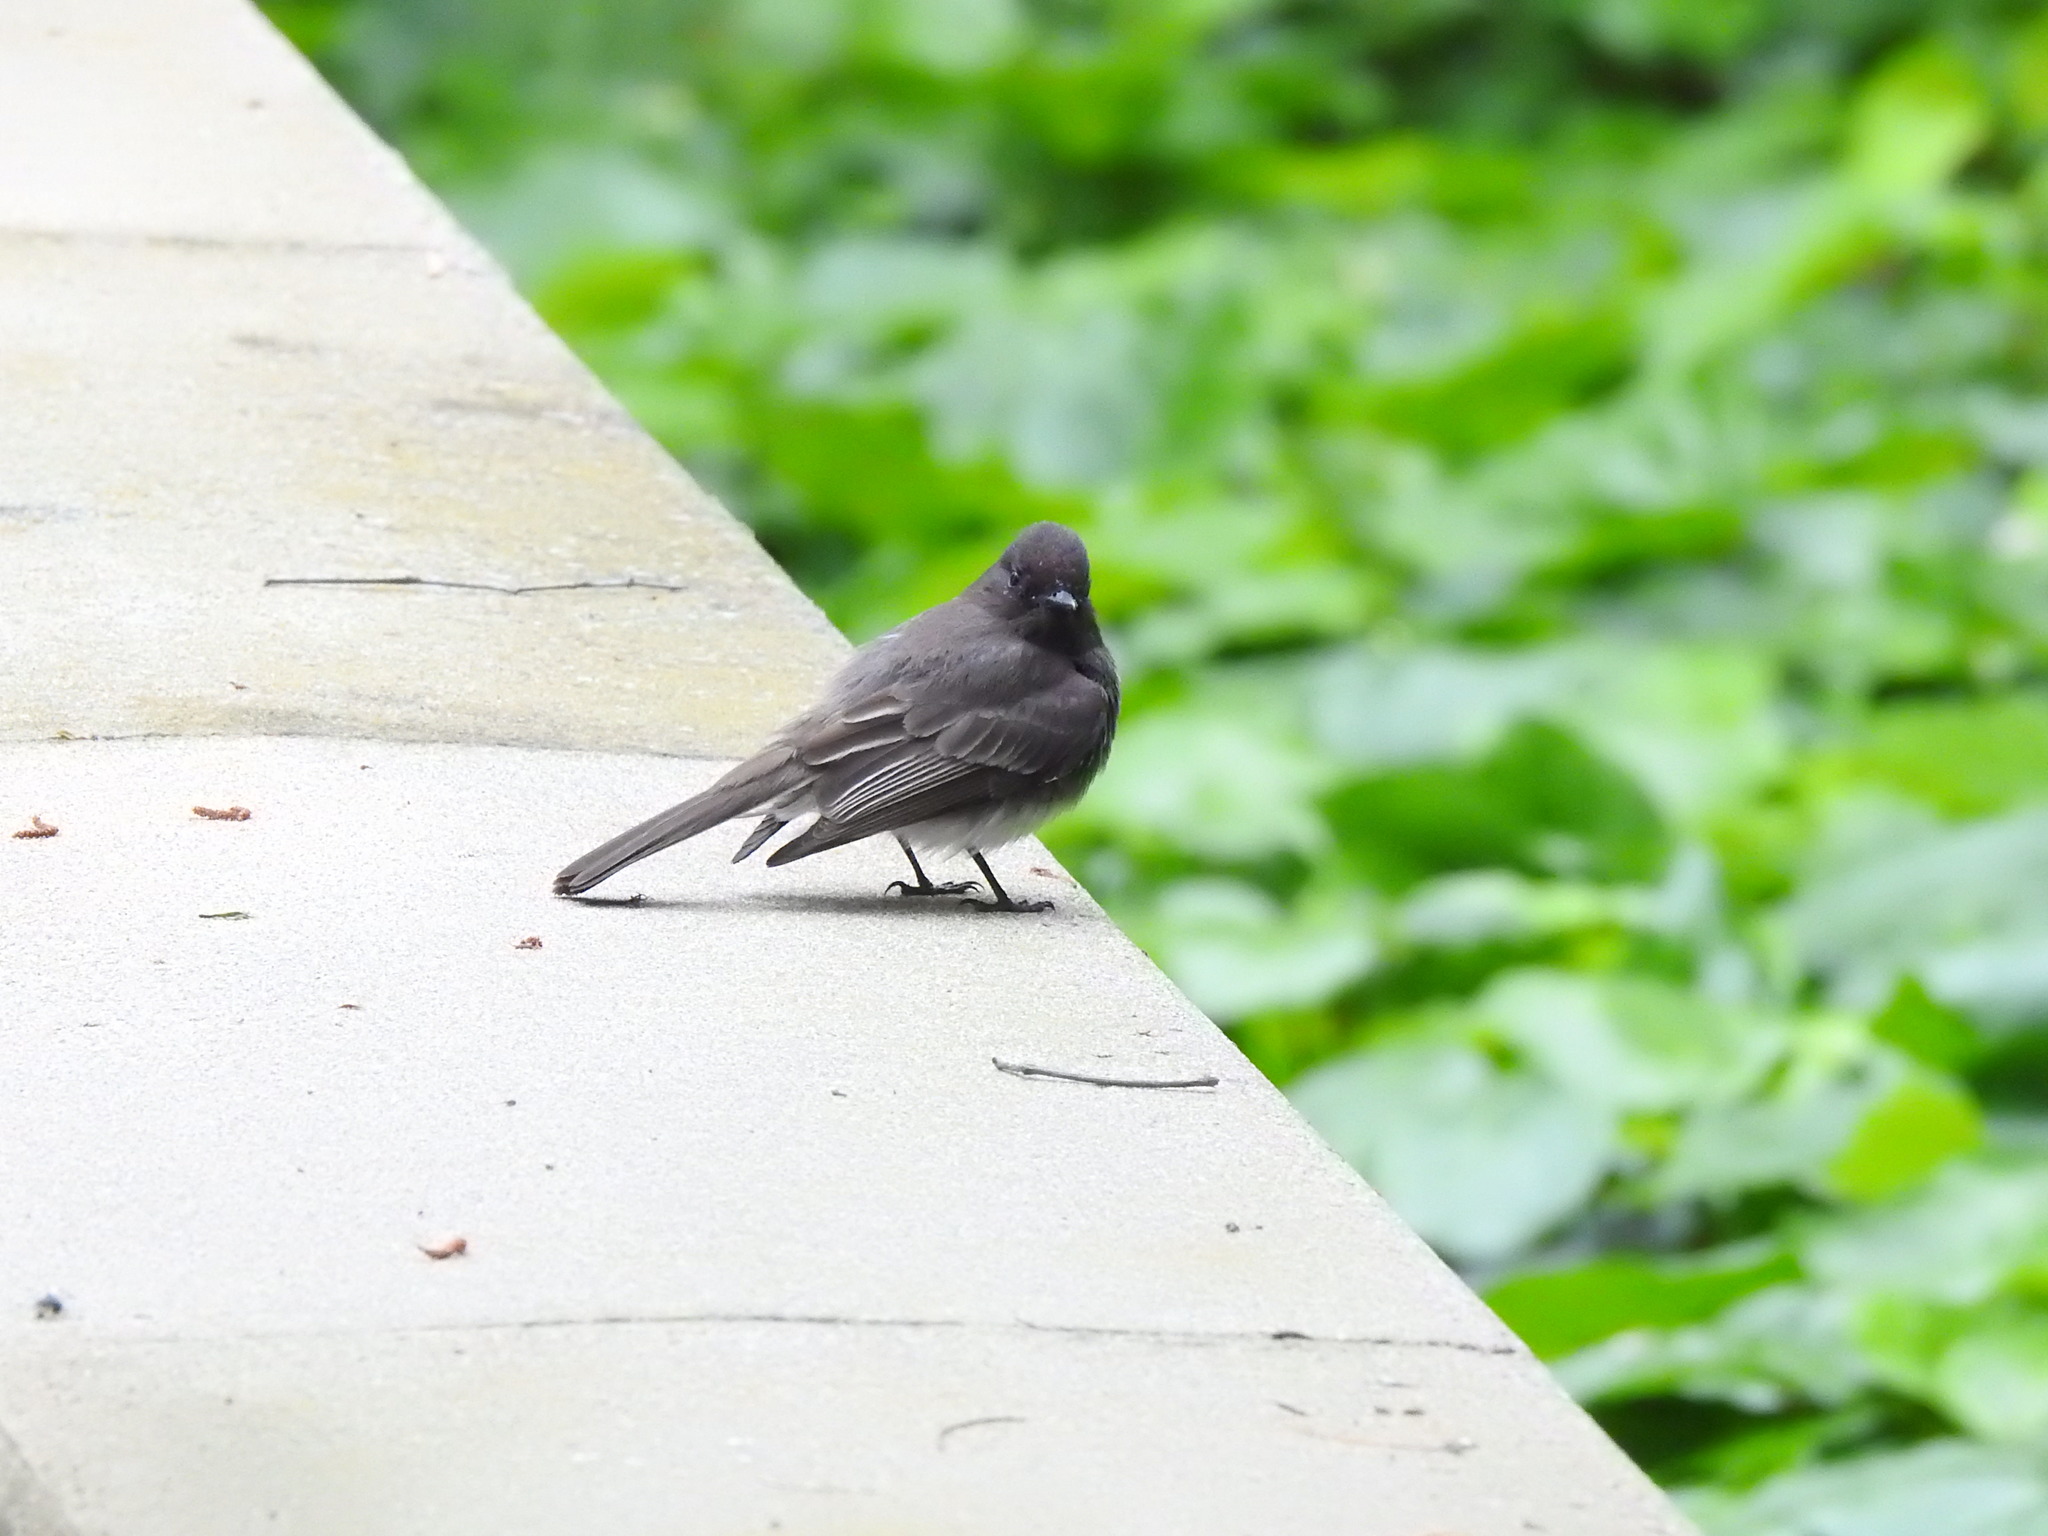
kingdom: Animalia
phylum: Chordata
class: Aves
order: Passeriformes
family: Tyrannidae
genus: Sayornis
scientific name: Sayornis nigricans
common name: Black phoebe
